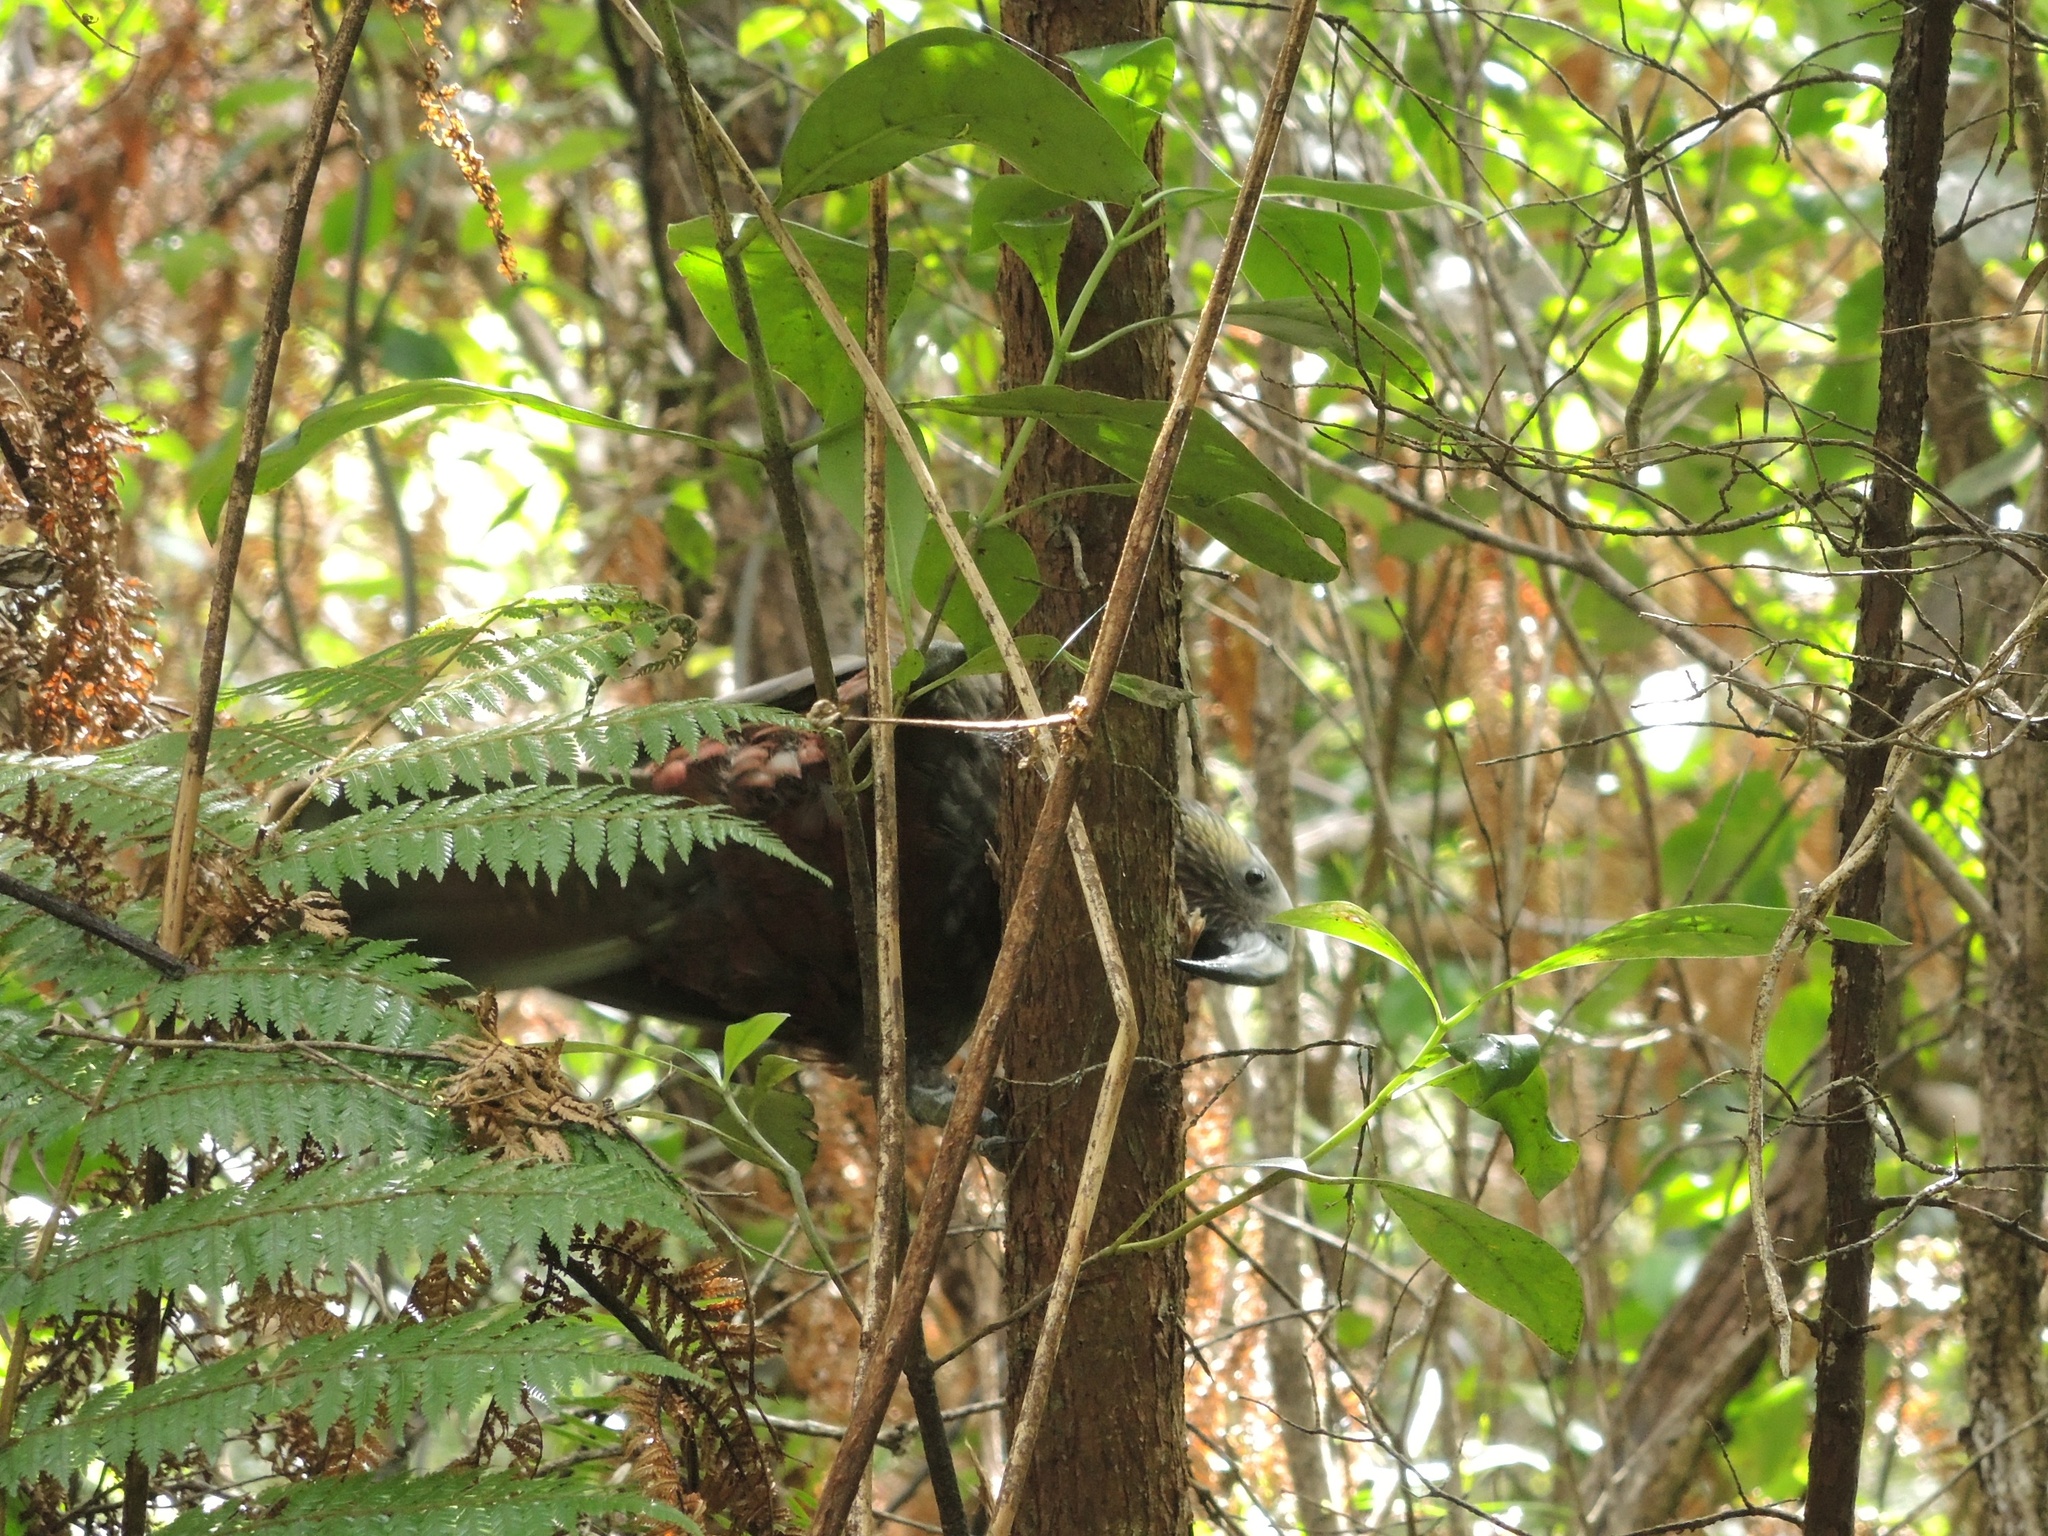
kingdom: Animalia
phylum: Chordata
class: Aves
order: Psittaciformes
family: Psittacidae
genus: Nestor
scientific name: Nestor meridionalis
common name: New zealand kaka
